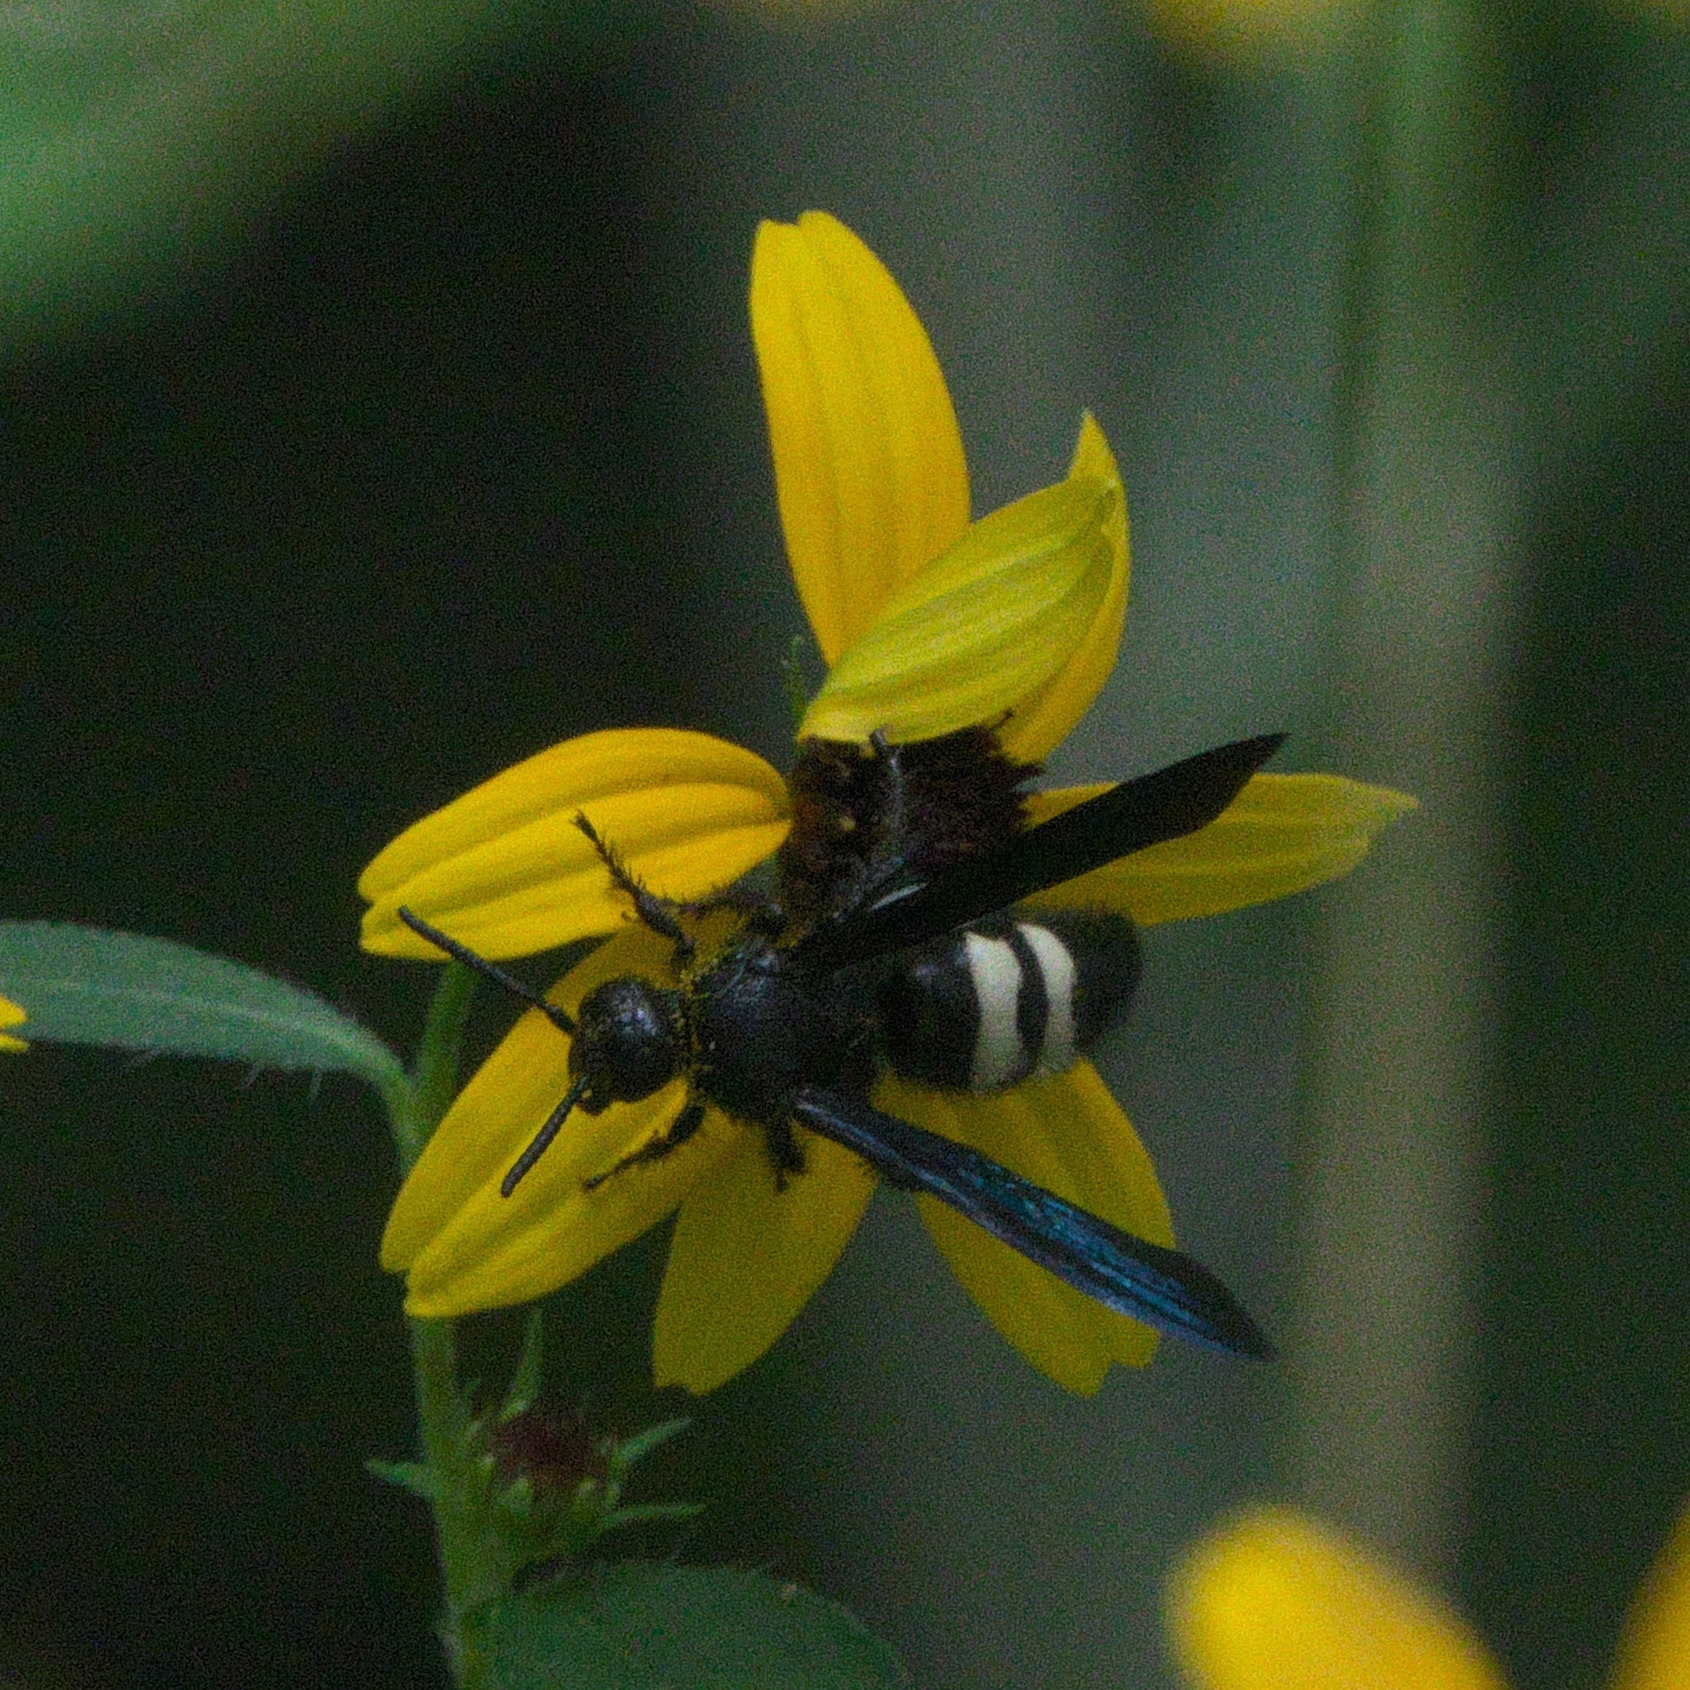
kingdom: Animalia
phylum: Arthropoda
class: Insecta
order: Hymenoptera
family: Scoliidae
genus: Scolia
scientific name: Scolia bicincta
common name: Double-banded scoliid wasp
